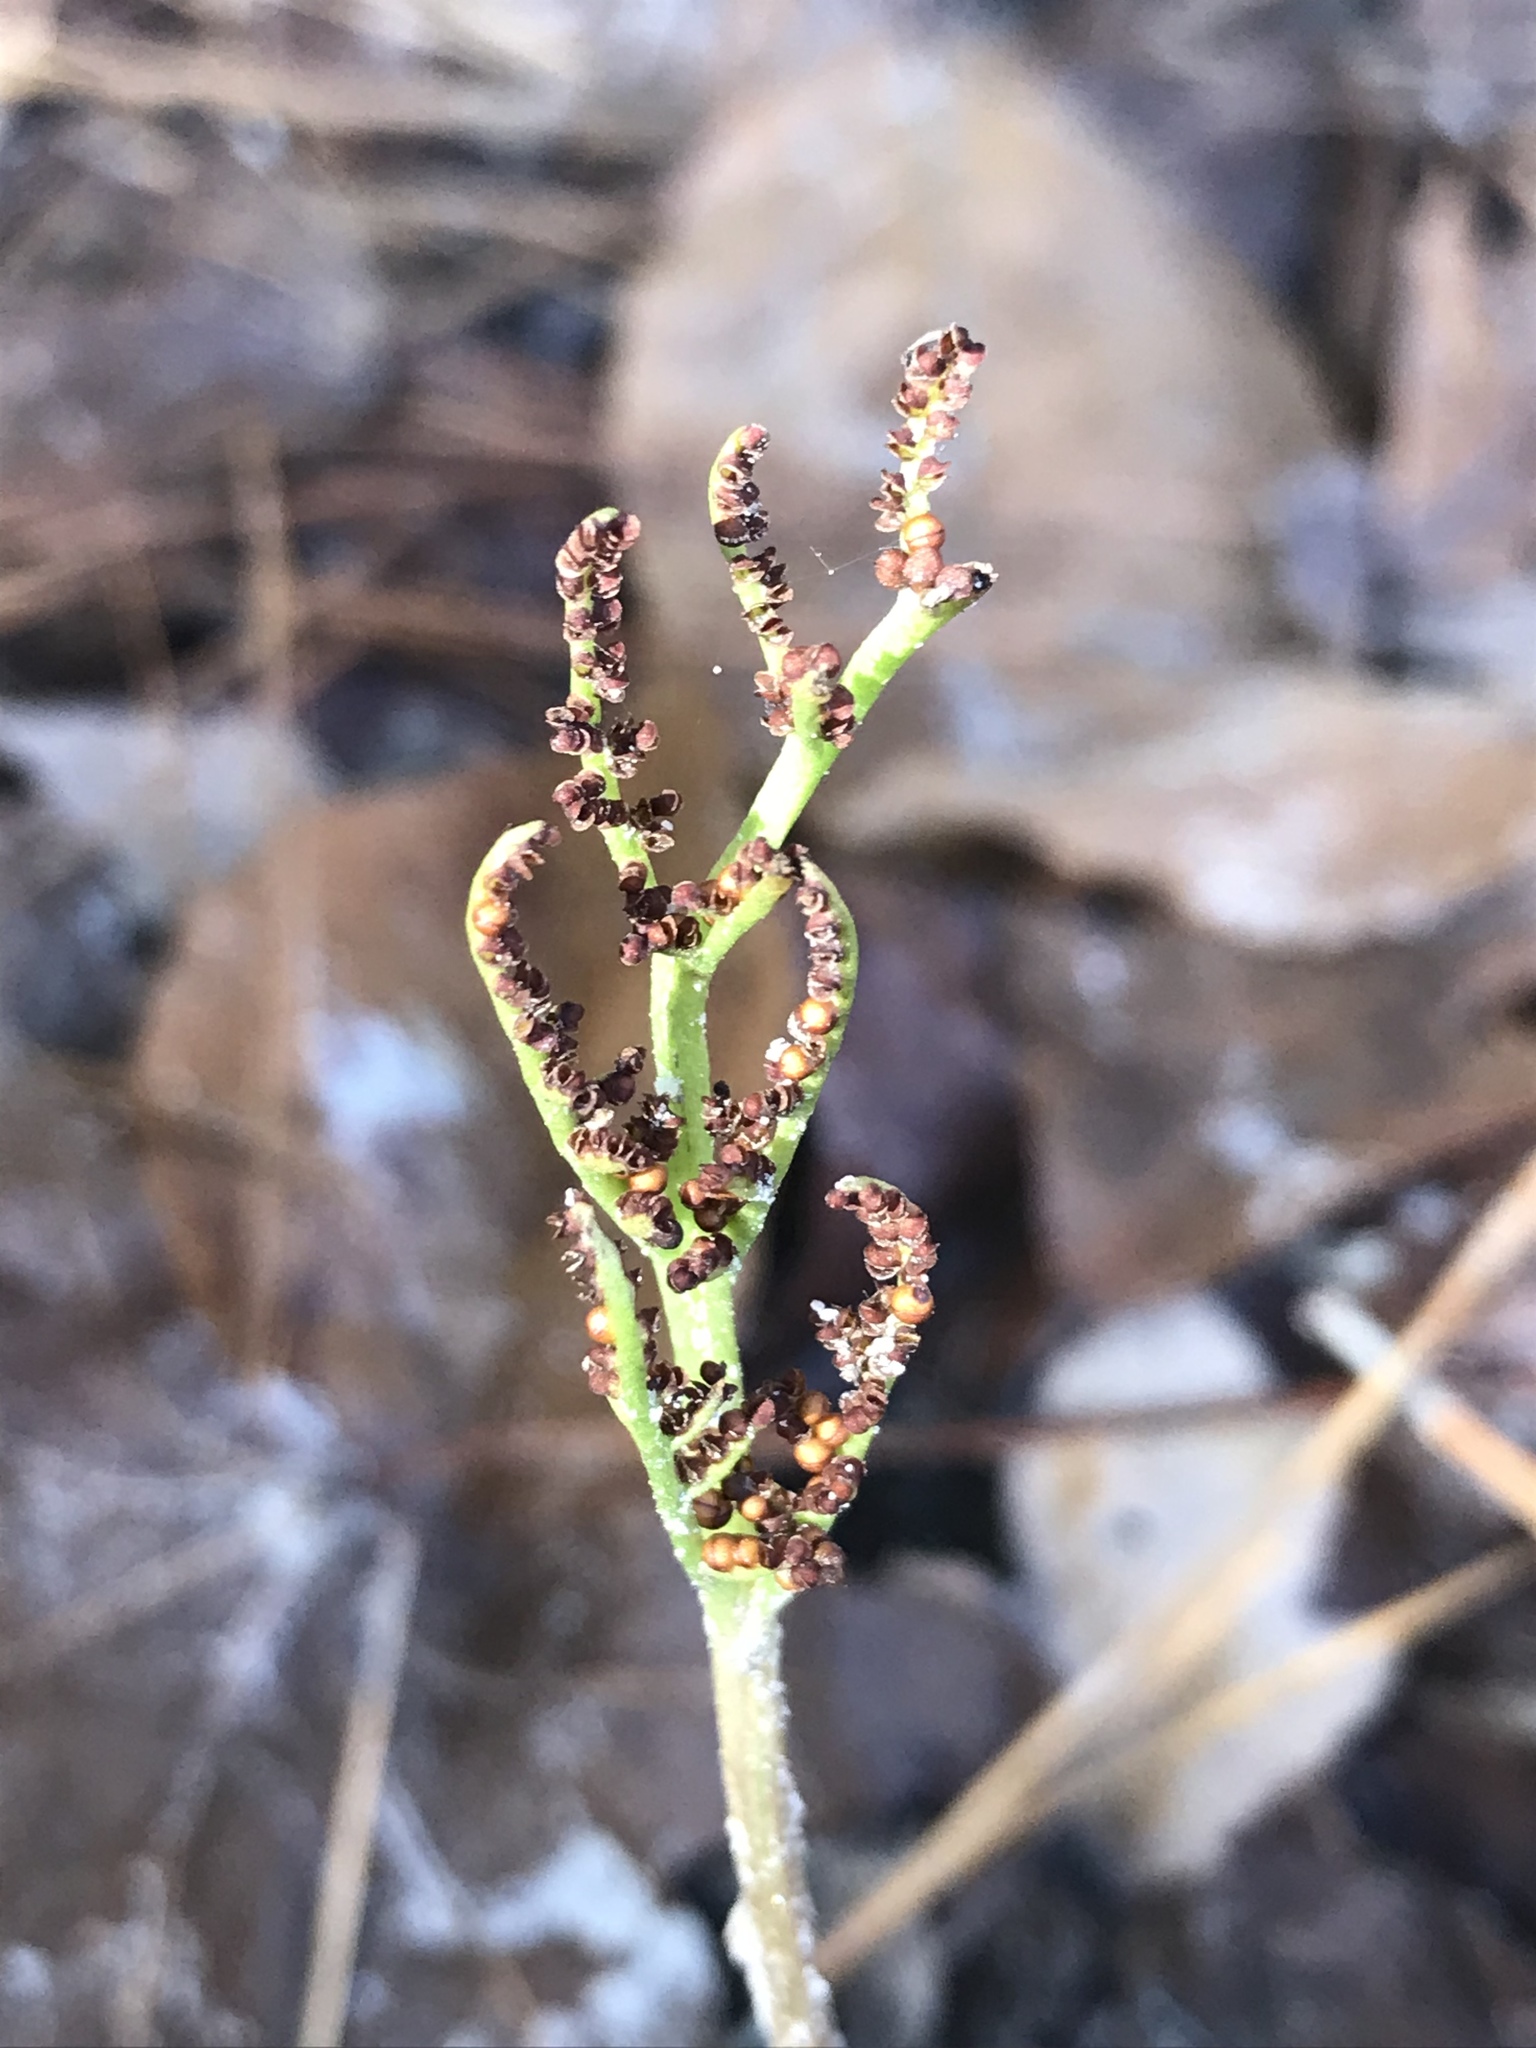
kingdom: Plantae
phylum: Tracheophyta
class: Polypodiopsida
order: Ophioglossales
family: Ophioglossaceae
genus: Sceptridium
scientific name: Sceptridium biternatum
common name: Sparse-lobed grapefern
